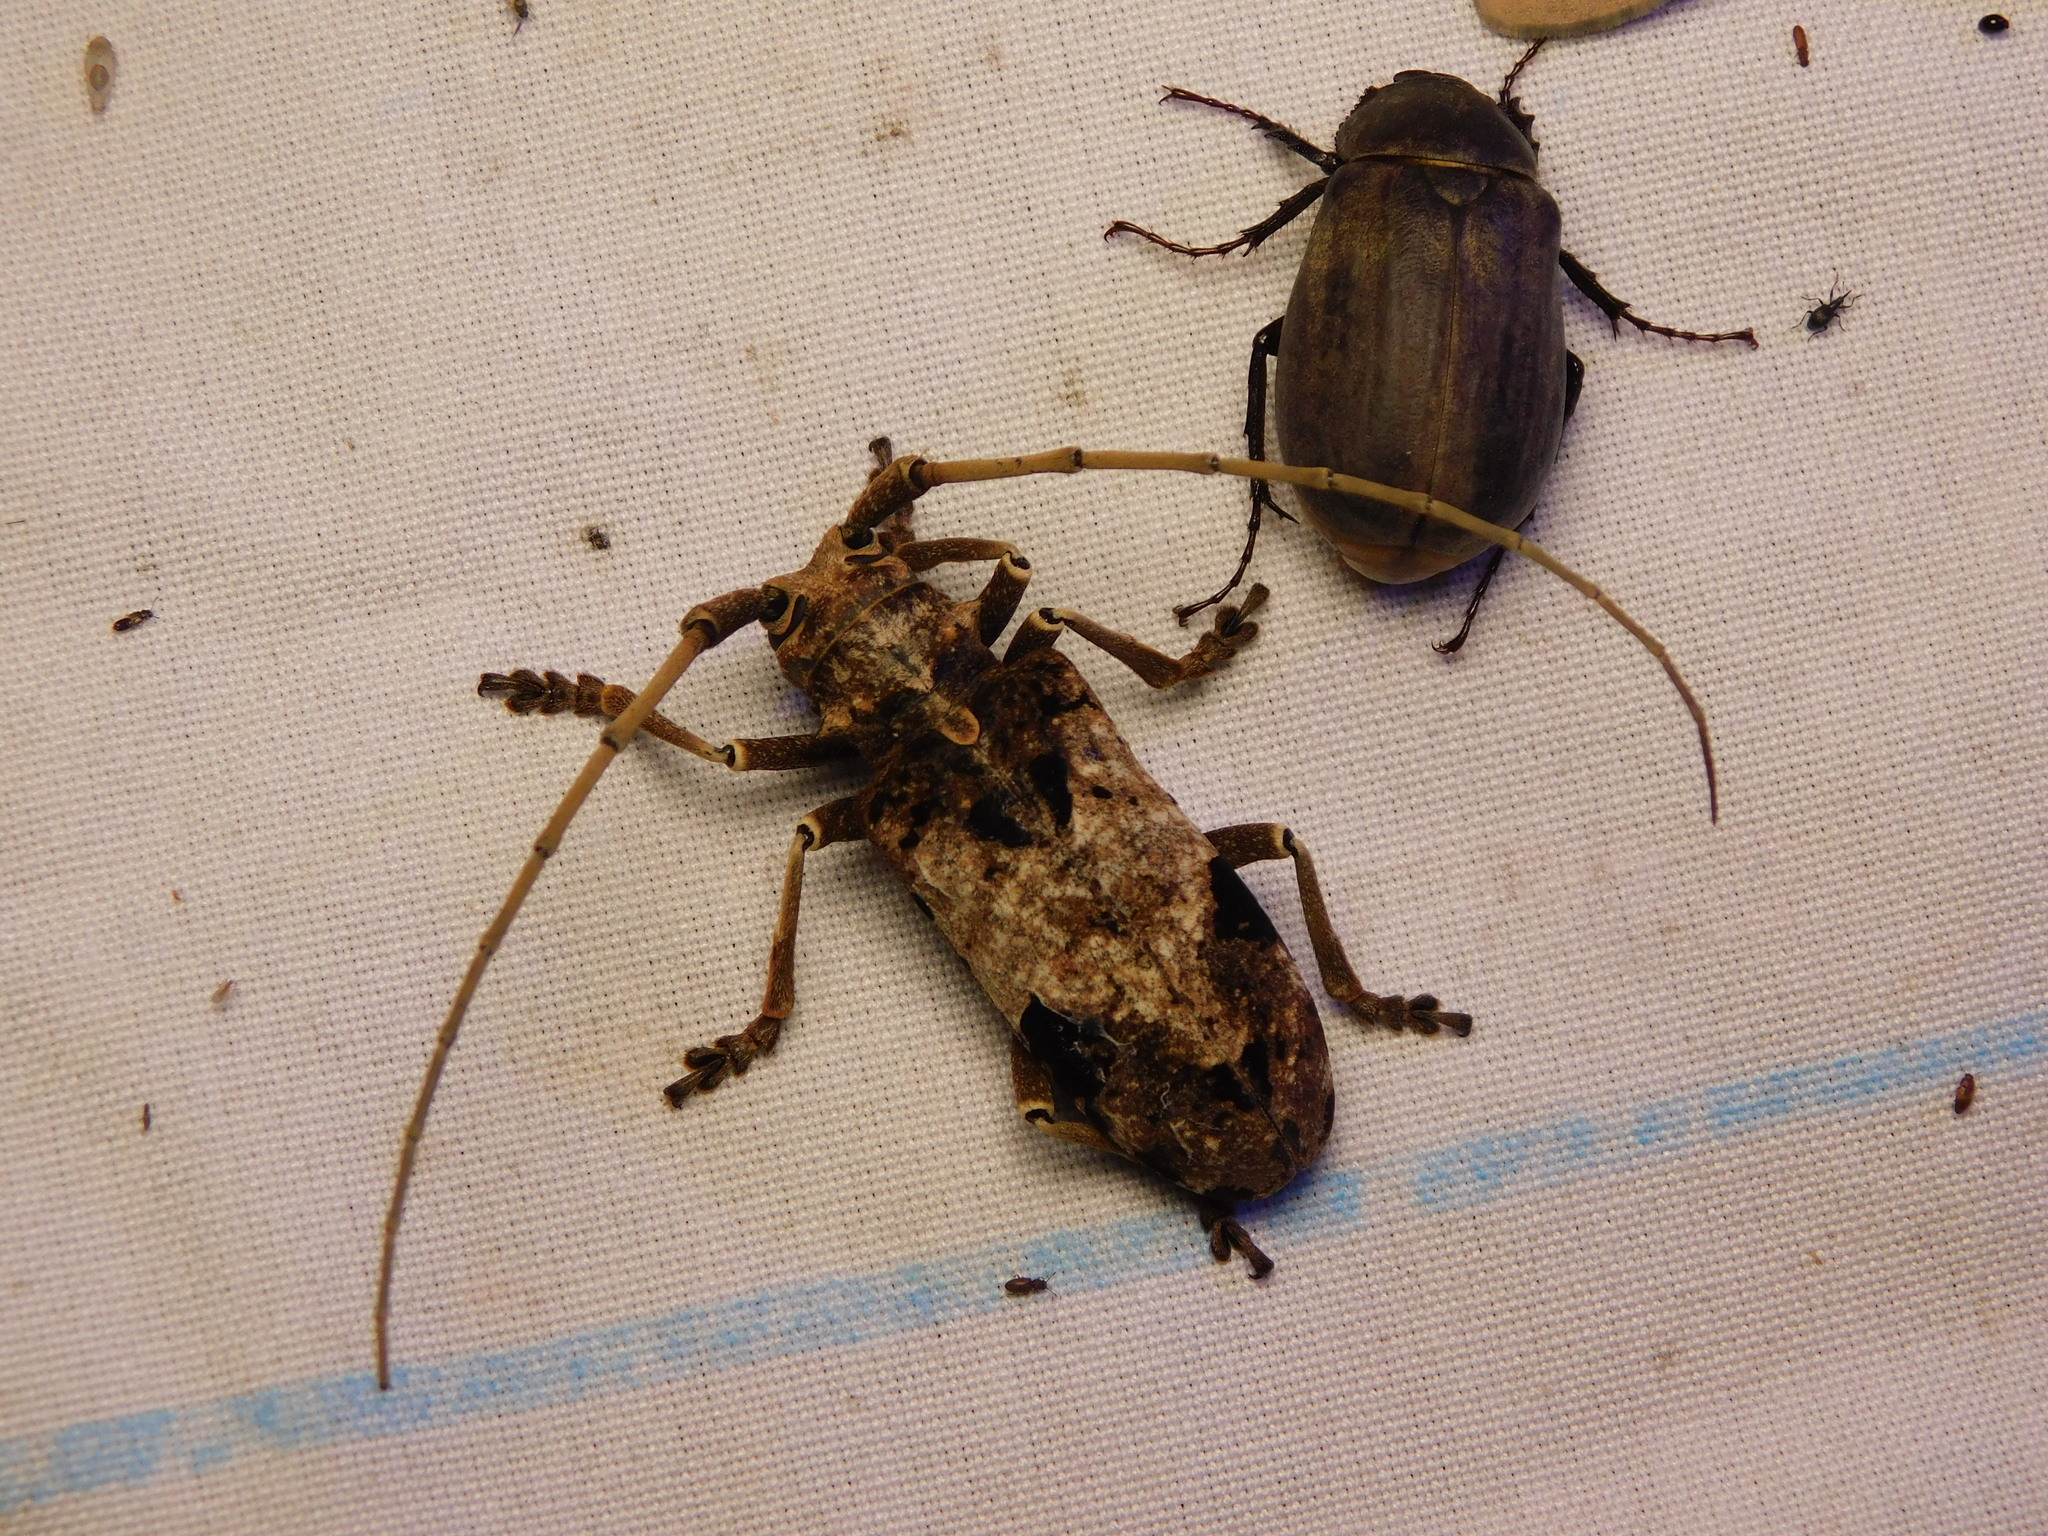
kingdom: Animalia
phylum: Arthropoda
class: Insecta
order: Coleoptera
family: Cerambycidae
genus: Monochamus
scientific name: Monochamus shembaganurensis
